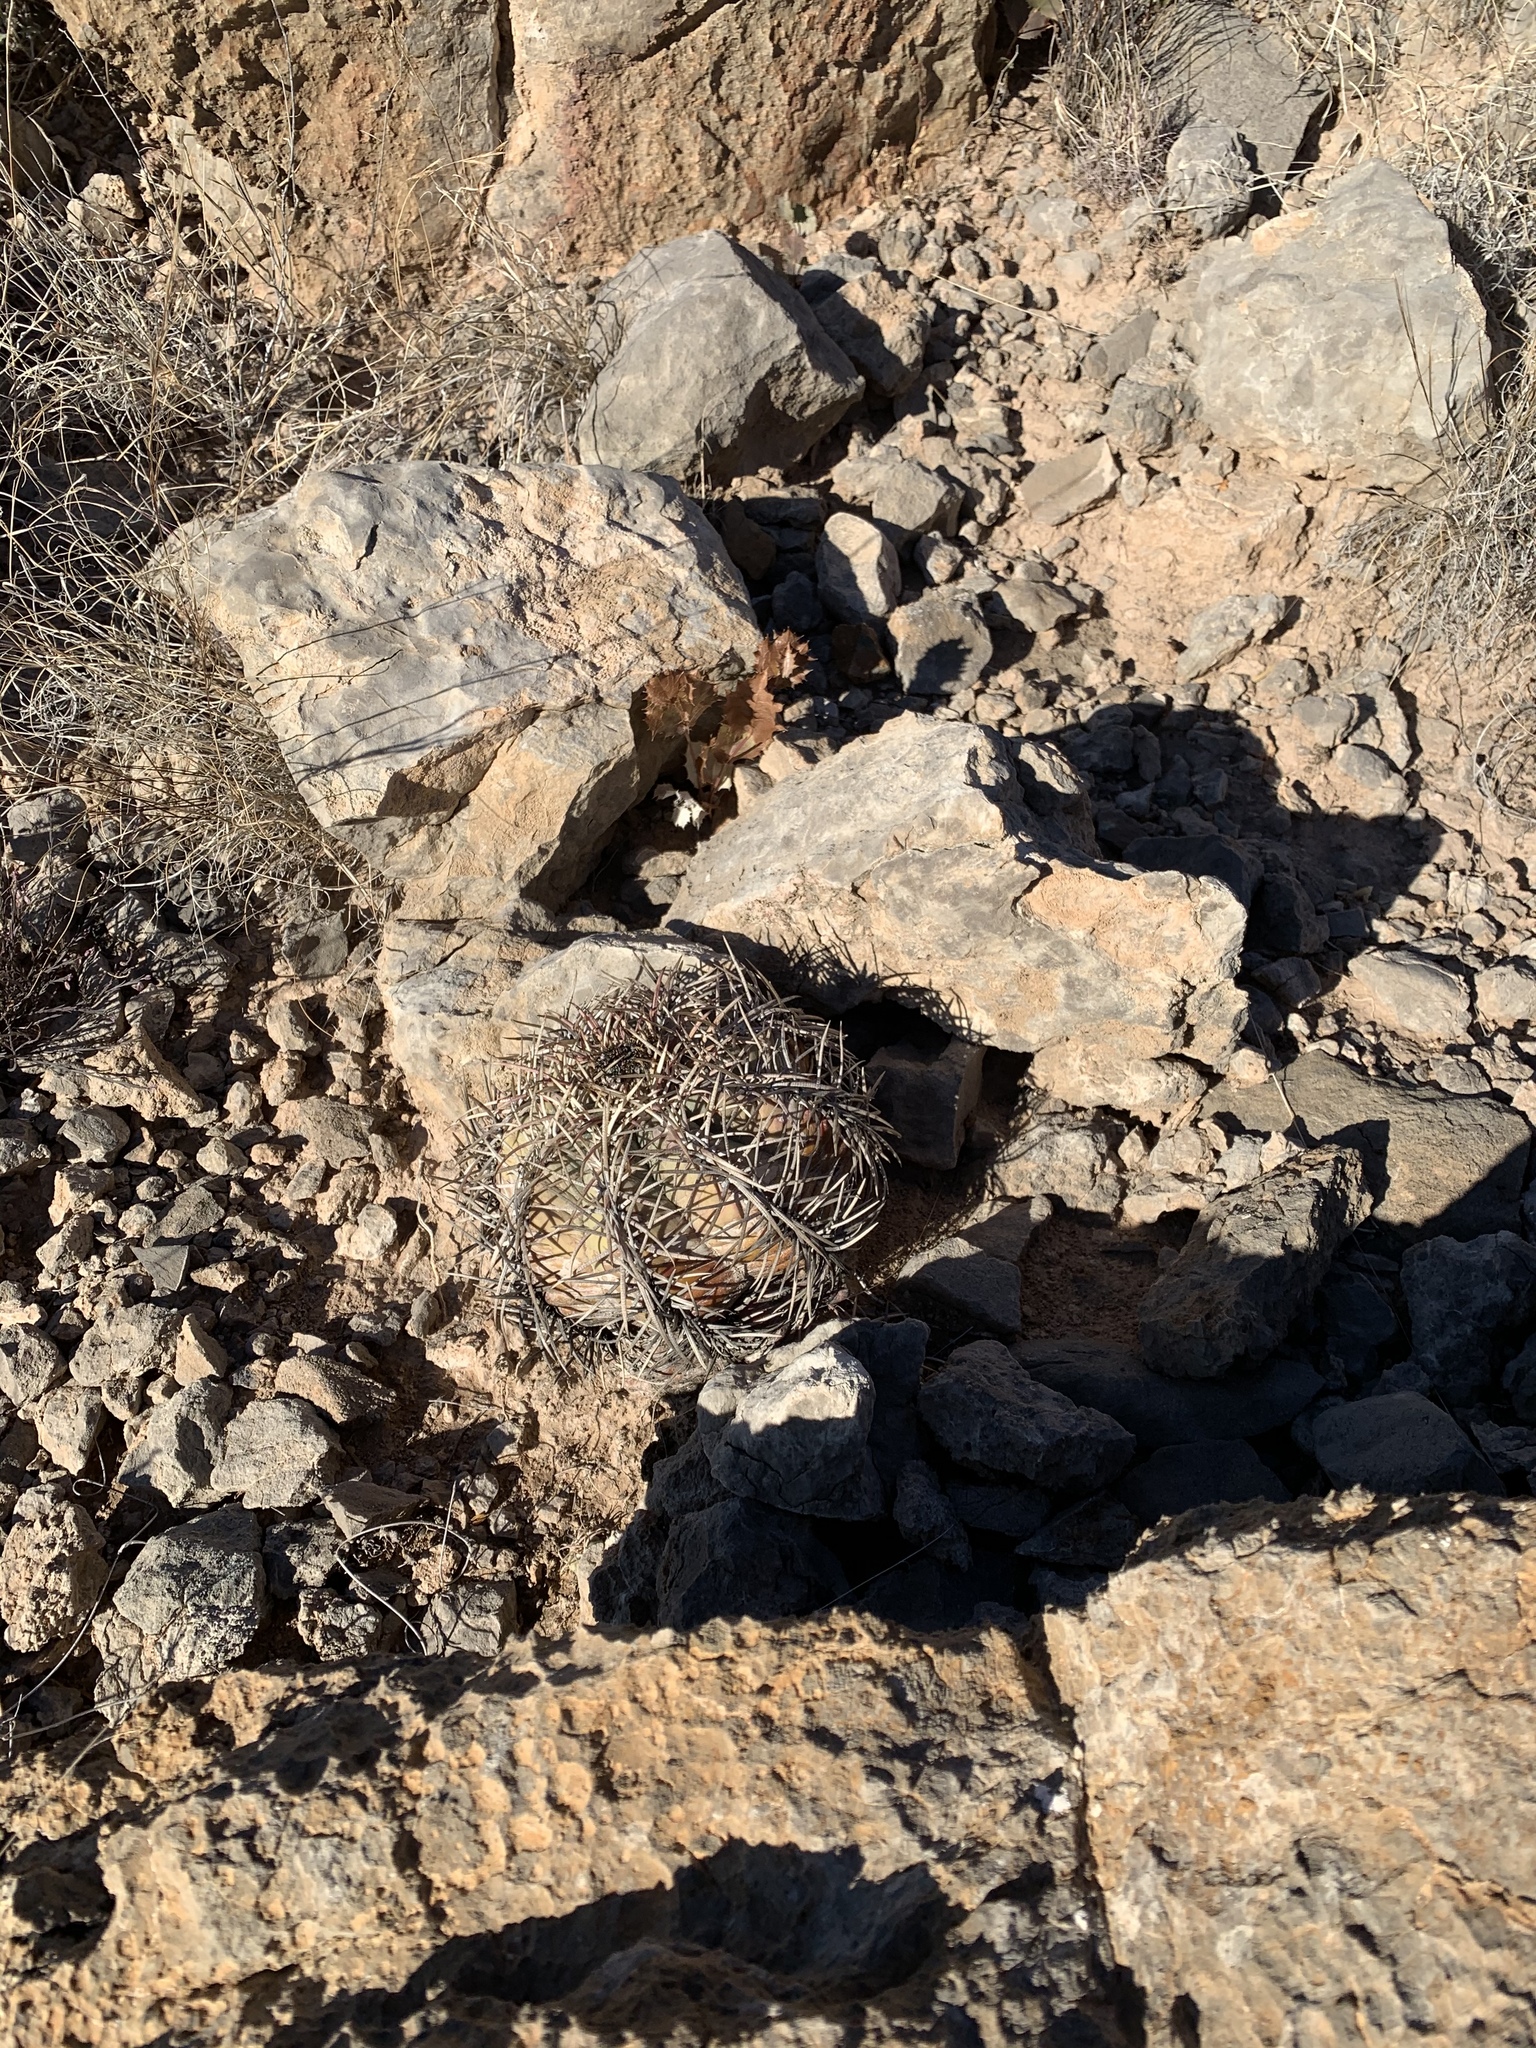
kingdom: Plantae
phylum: Tracheophyta
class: Magnoliopsida
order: Caryophyllales
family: Cactaceae
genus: Echinocactus
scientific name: Echinocactus horizonthalonius
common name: Devilshead
